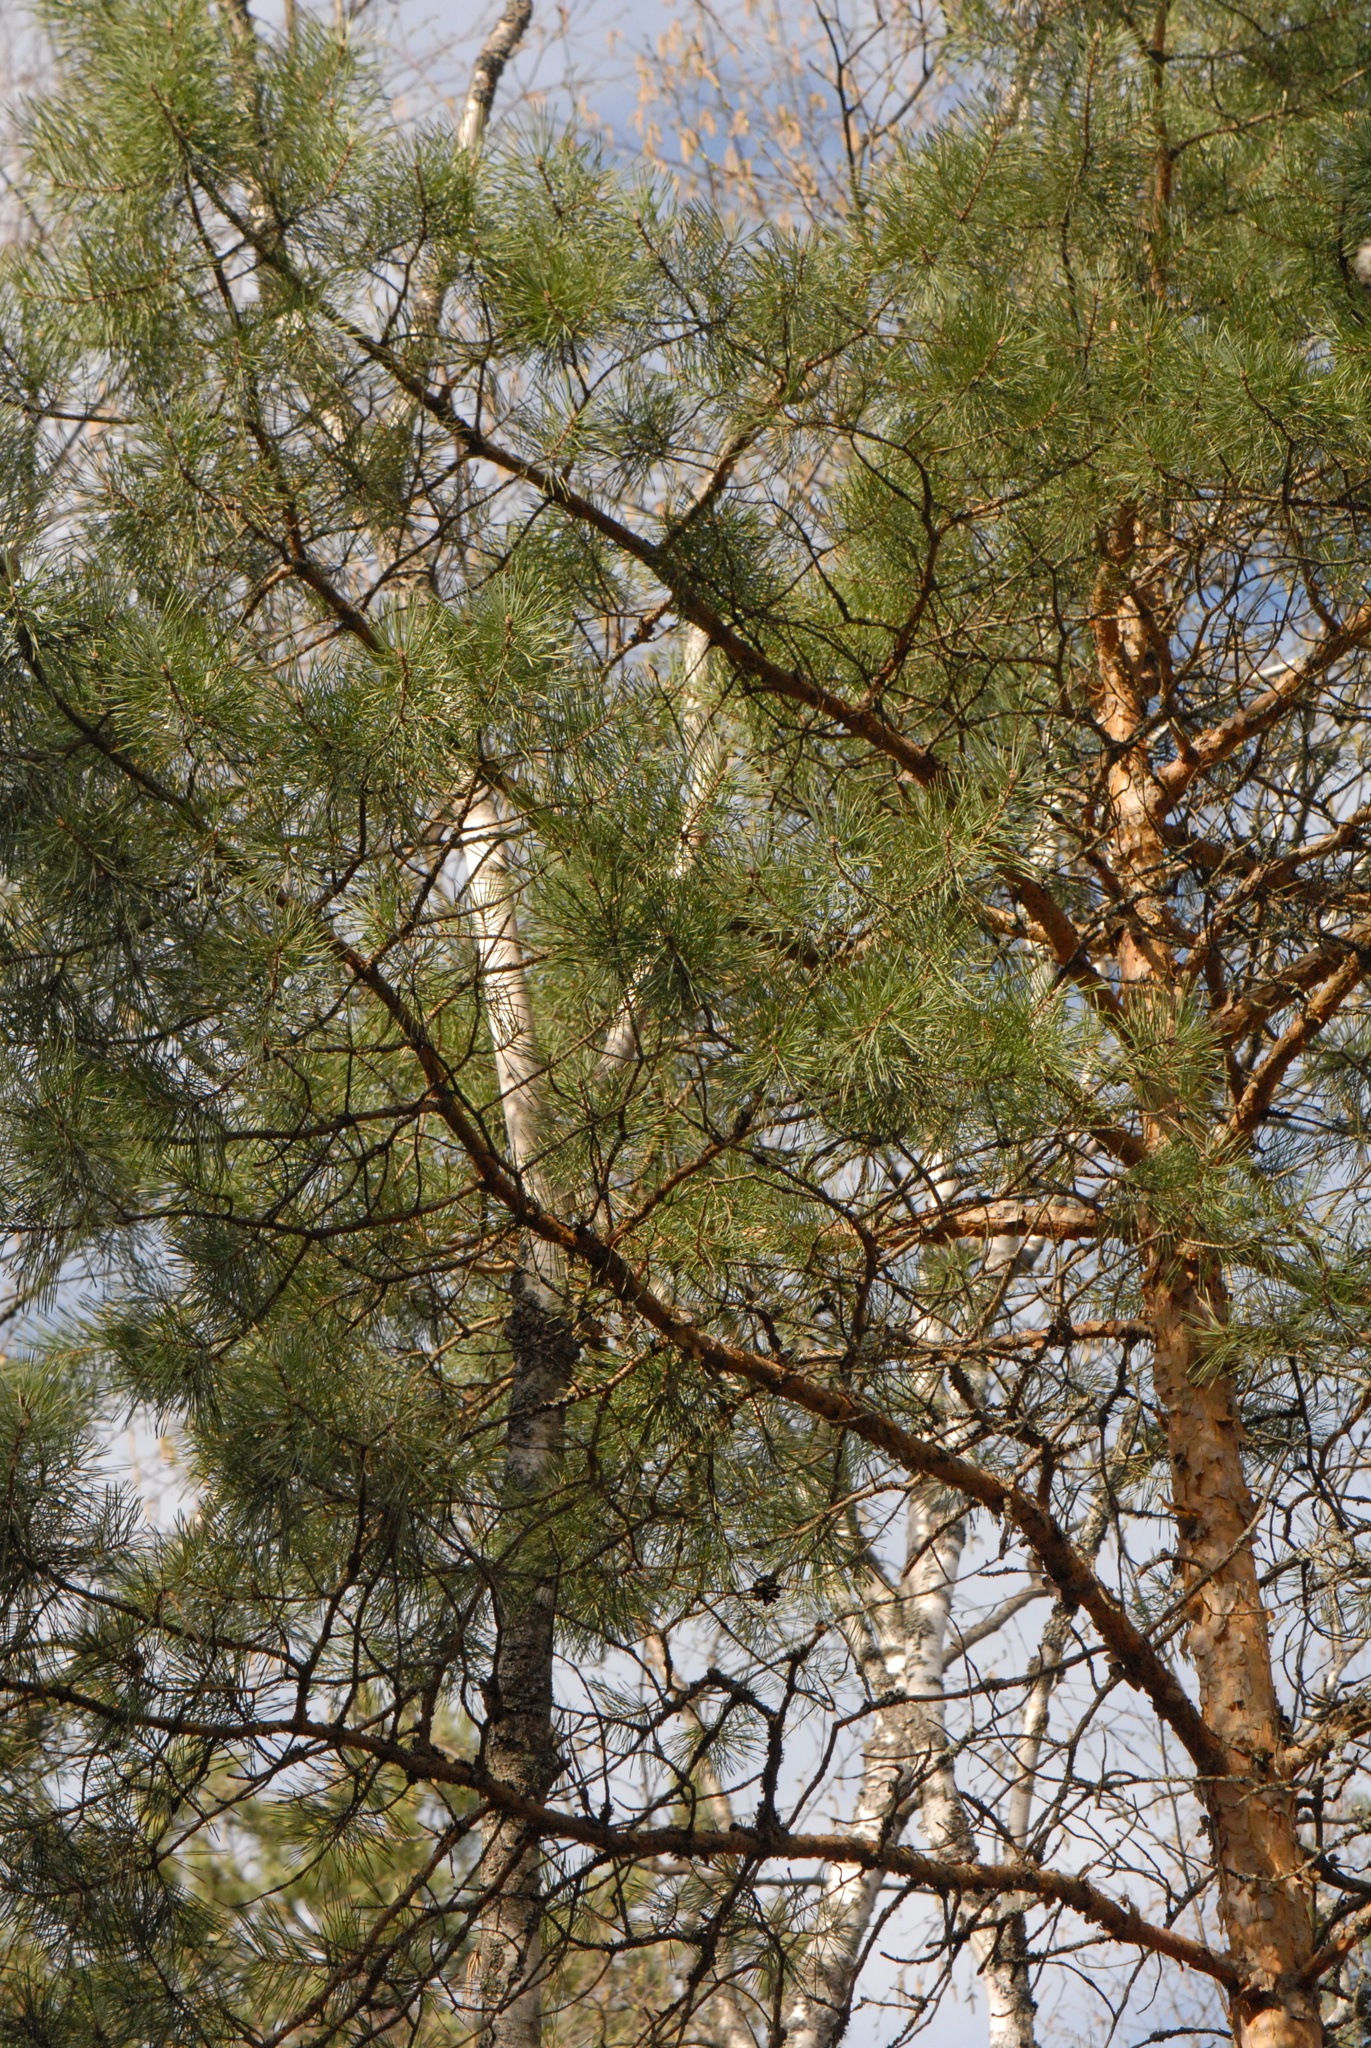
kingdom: Plantae
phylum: Tracheophyta
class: Pinopsida
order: Pinales
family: Pinaceae
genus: Pinus
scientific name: Pinus sylvestris
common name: Scots pine
